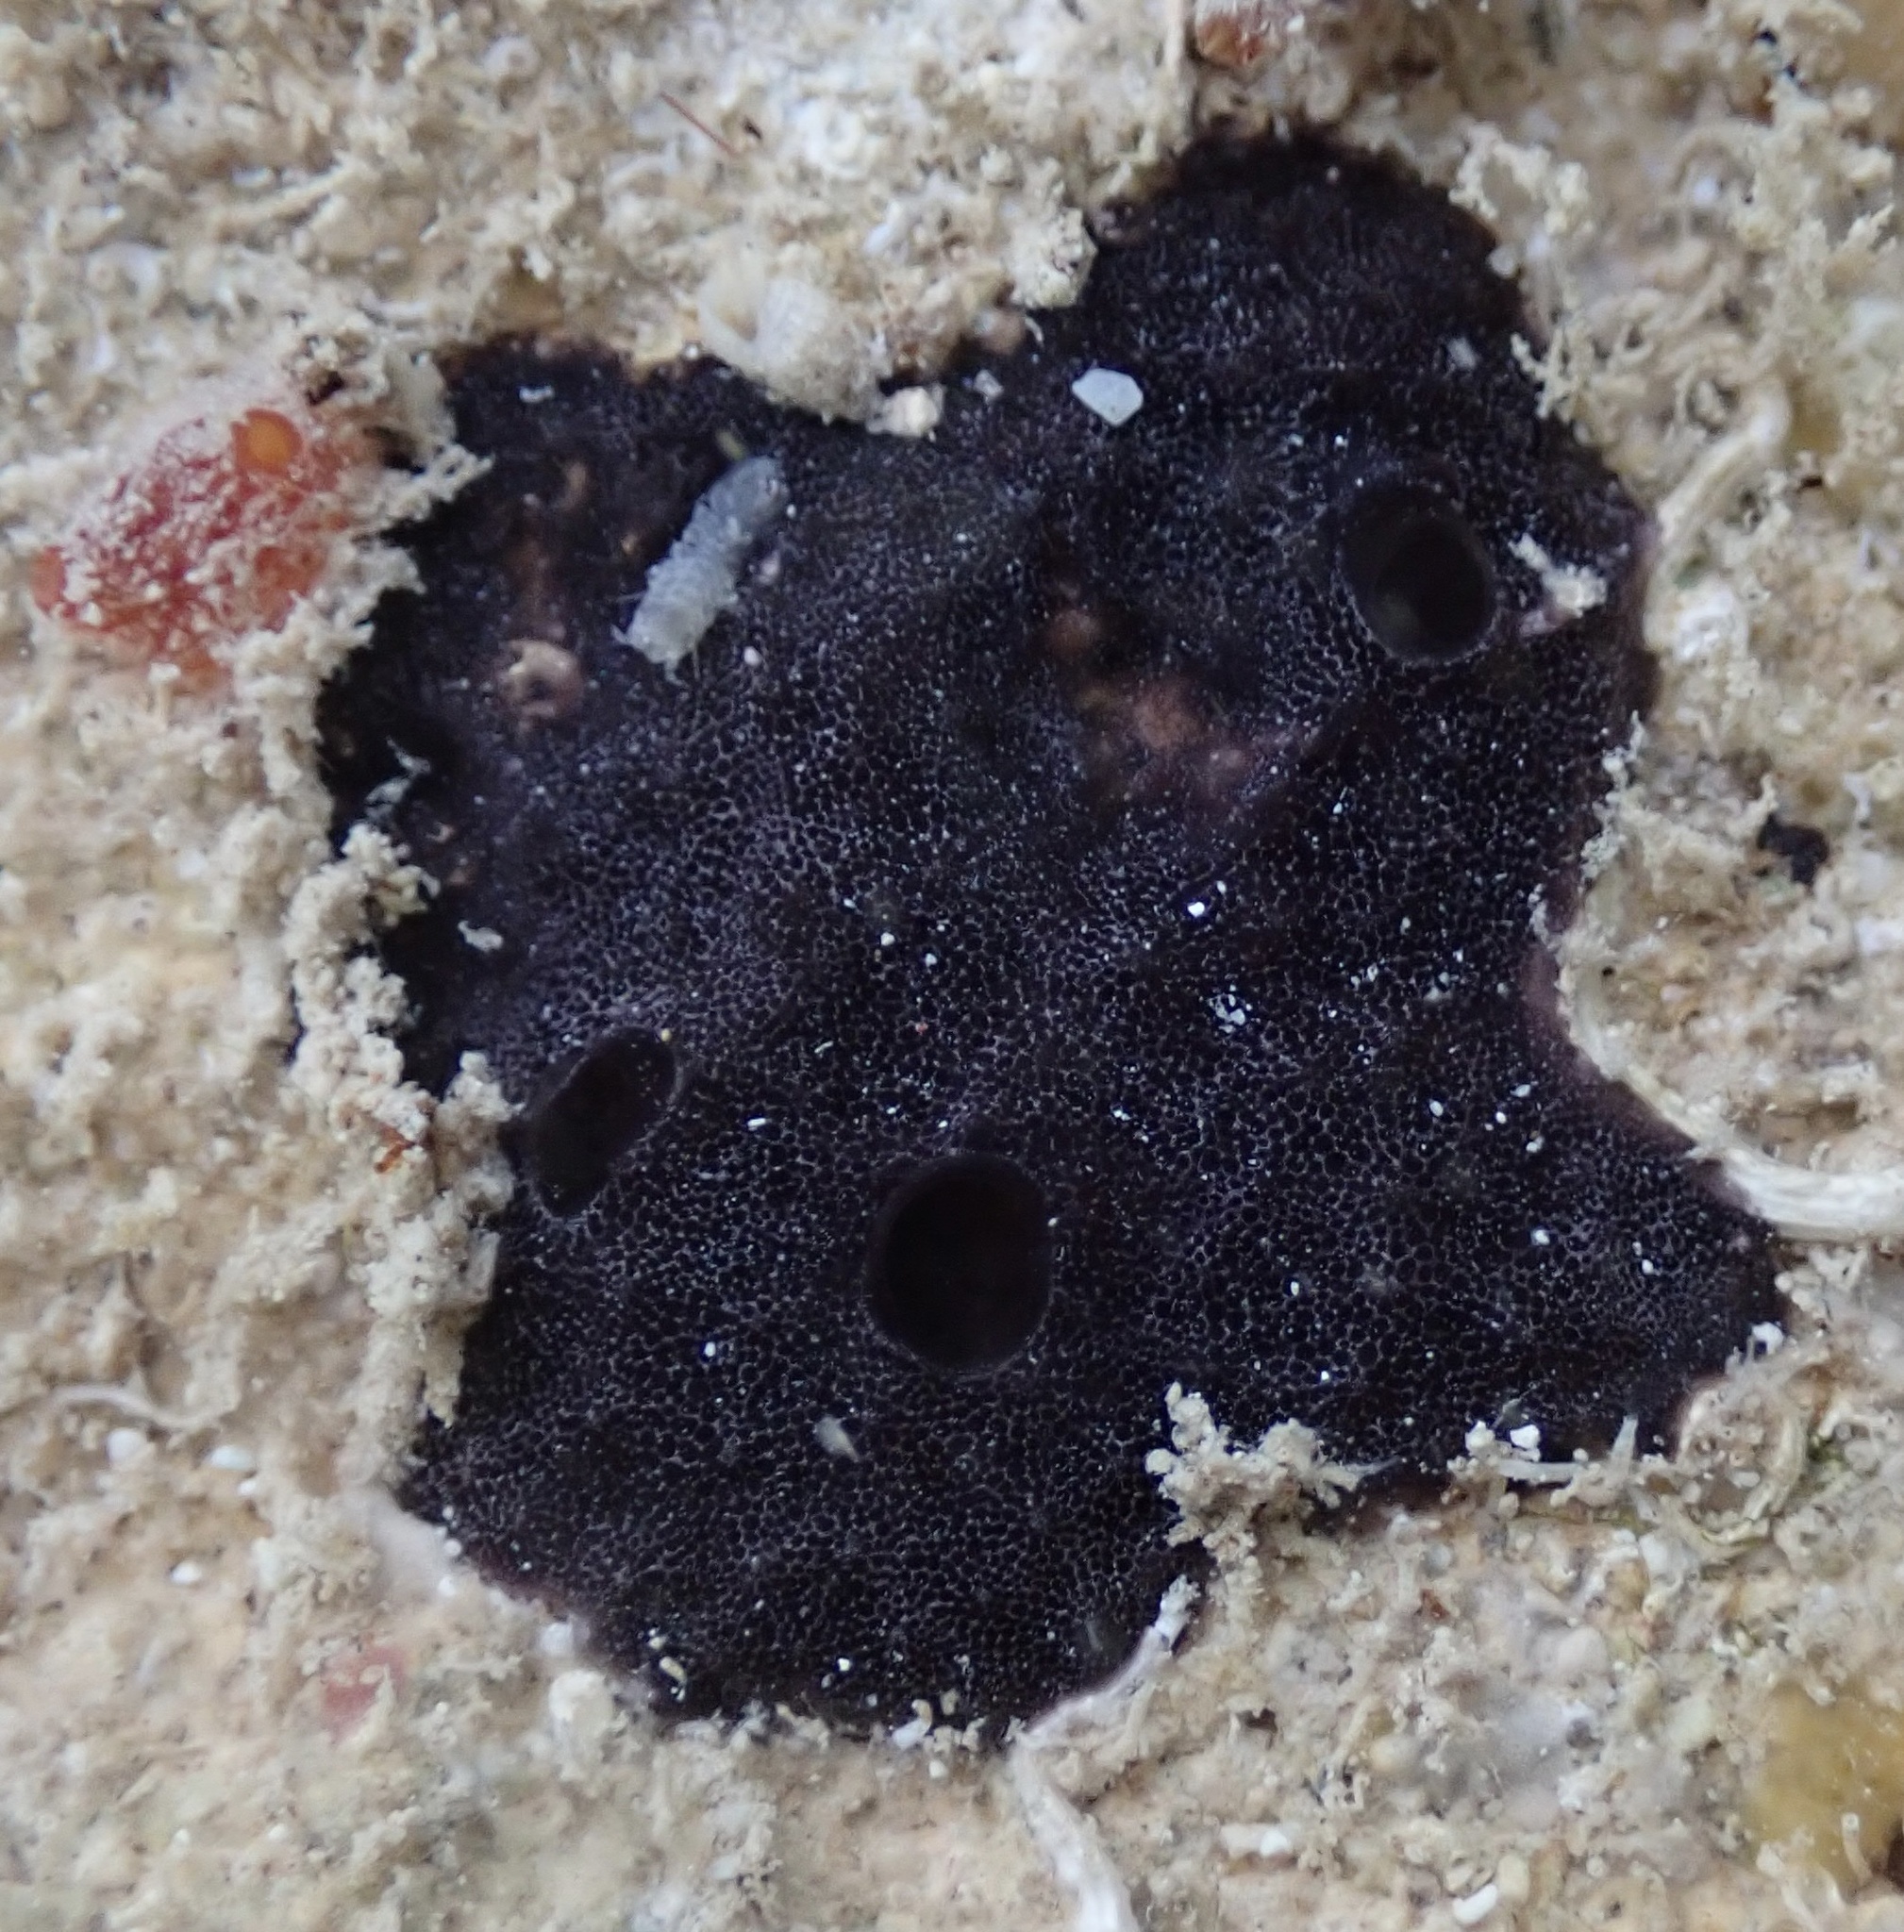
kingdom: Animalia
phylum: Porifera
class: Demospongiae
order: Dendroceratida
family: Darwinellidae
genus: Chelonaplysilla
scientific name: Chelonaplysilla americana
